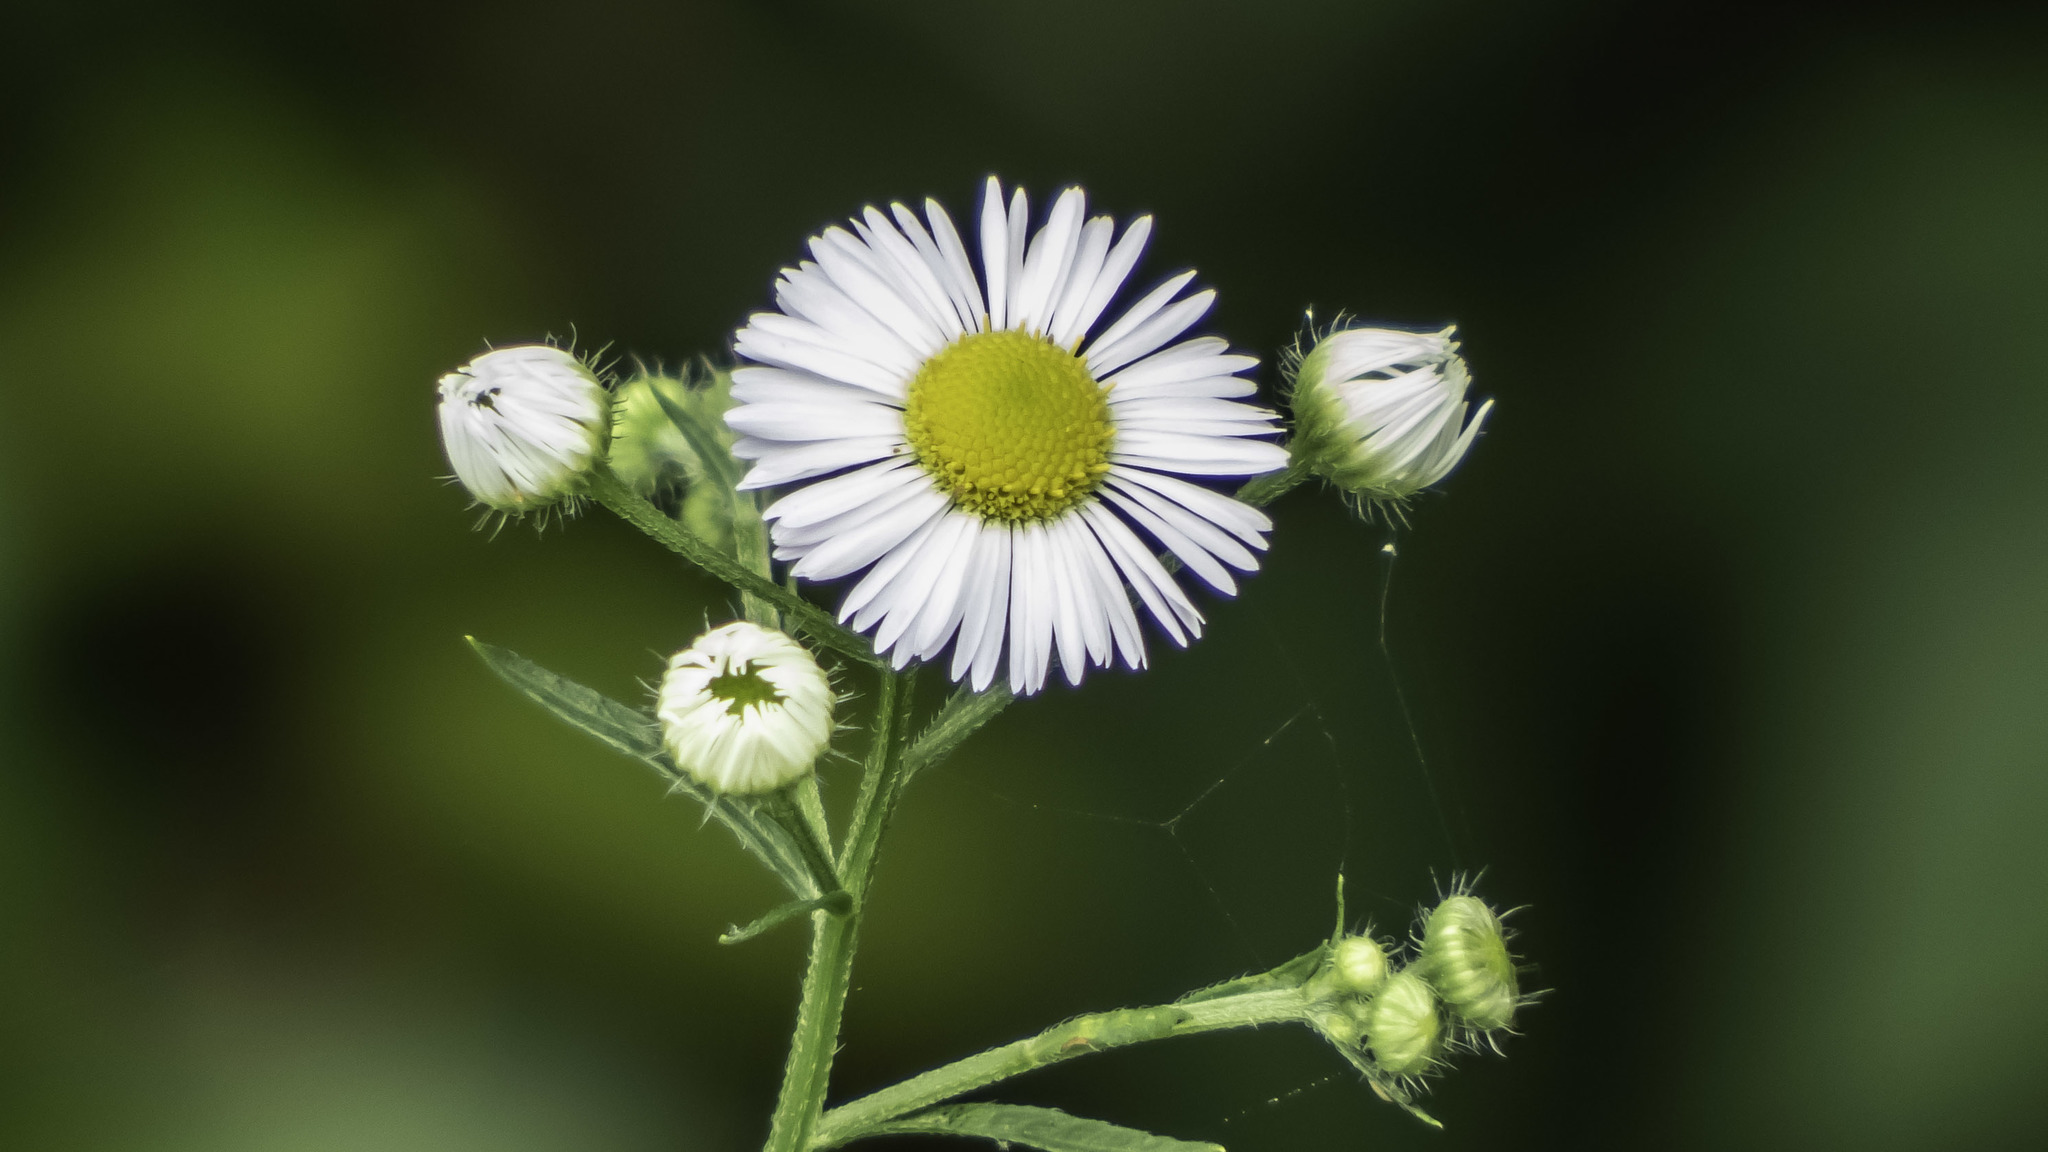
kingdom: Plantae
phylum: Tracheophyta
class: Magnoliopsida
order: Asterales
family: Asteraceae
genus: Erigeron
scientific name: Erigeron annuus
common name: Tall fleabane
